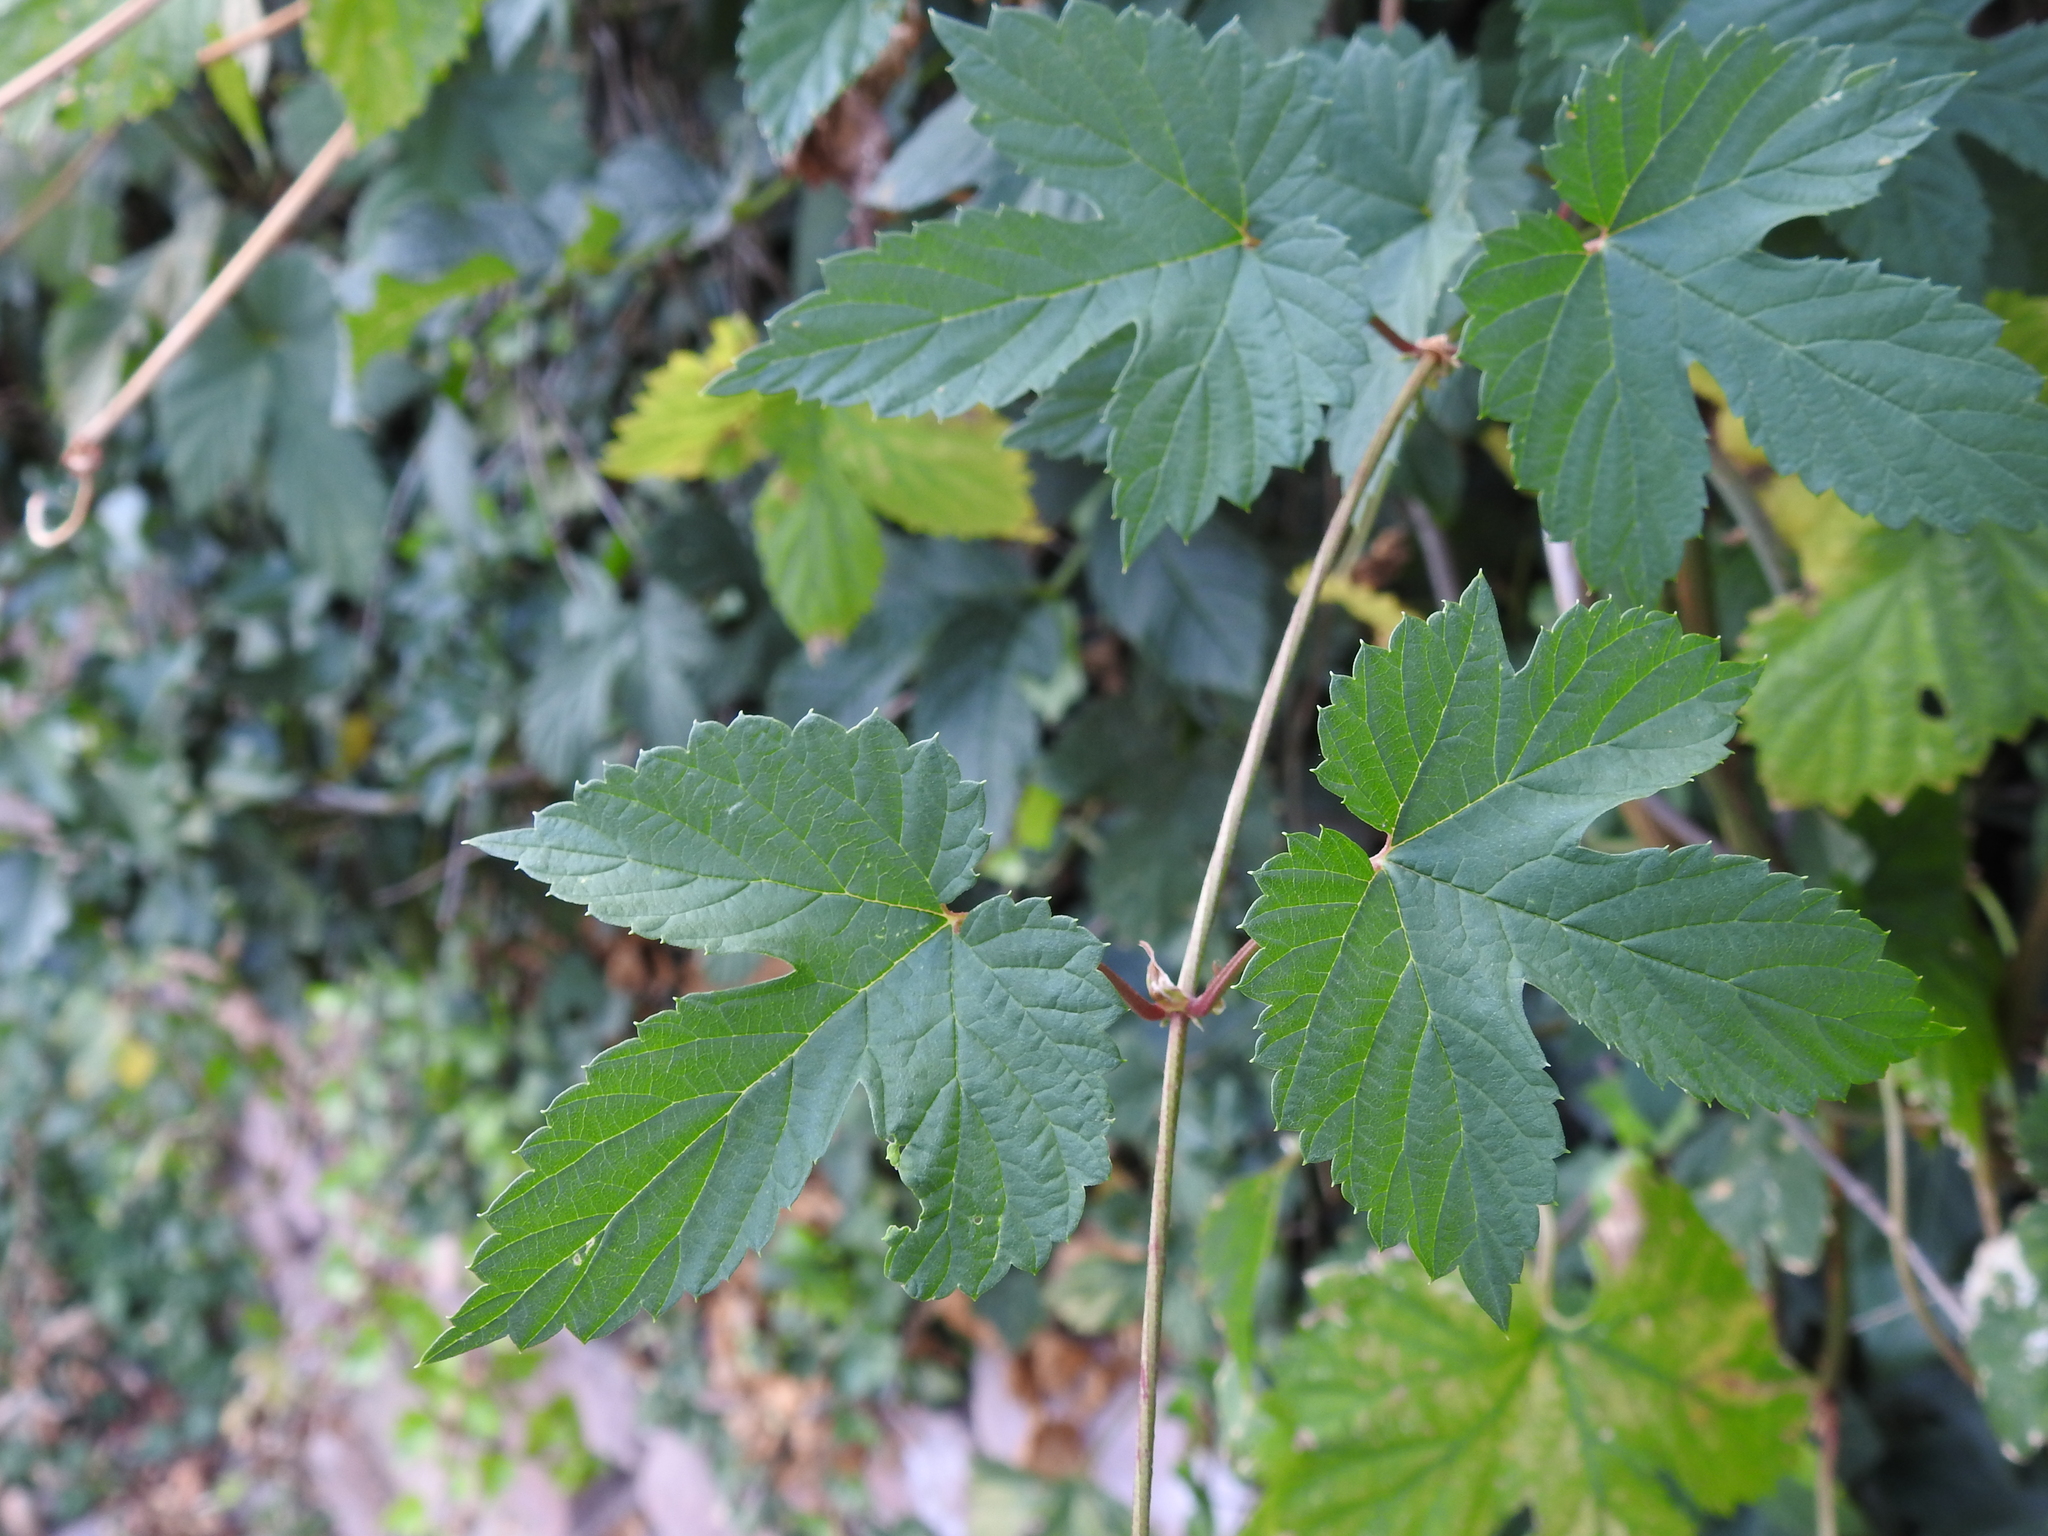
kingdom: Plantae
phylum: Tracheophyta
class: Magnoliopsida
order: Rosales
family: Cannabaceae
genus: Humulus
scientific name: Humulus lupulus
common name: Hop
